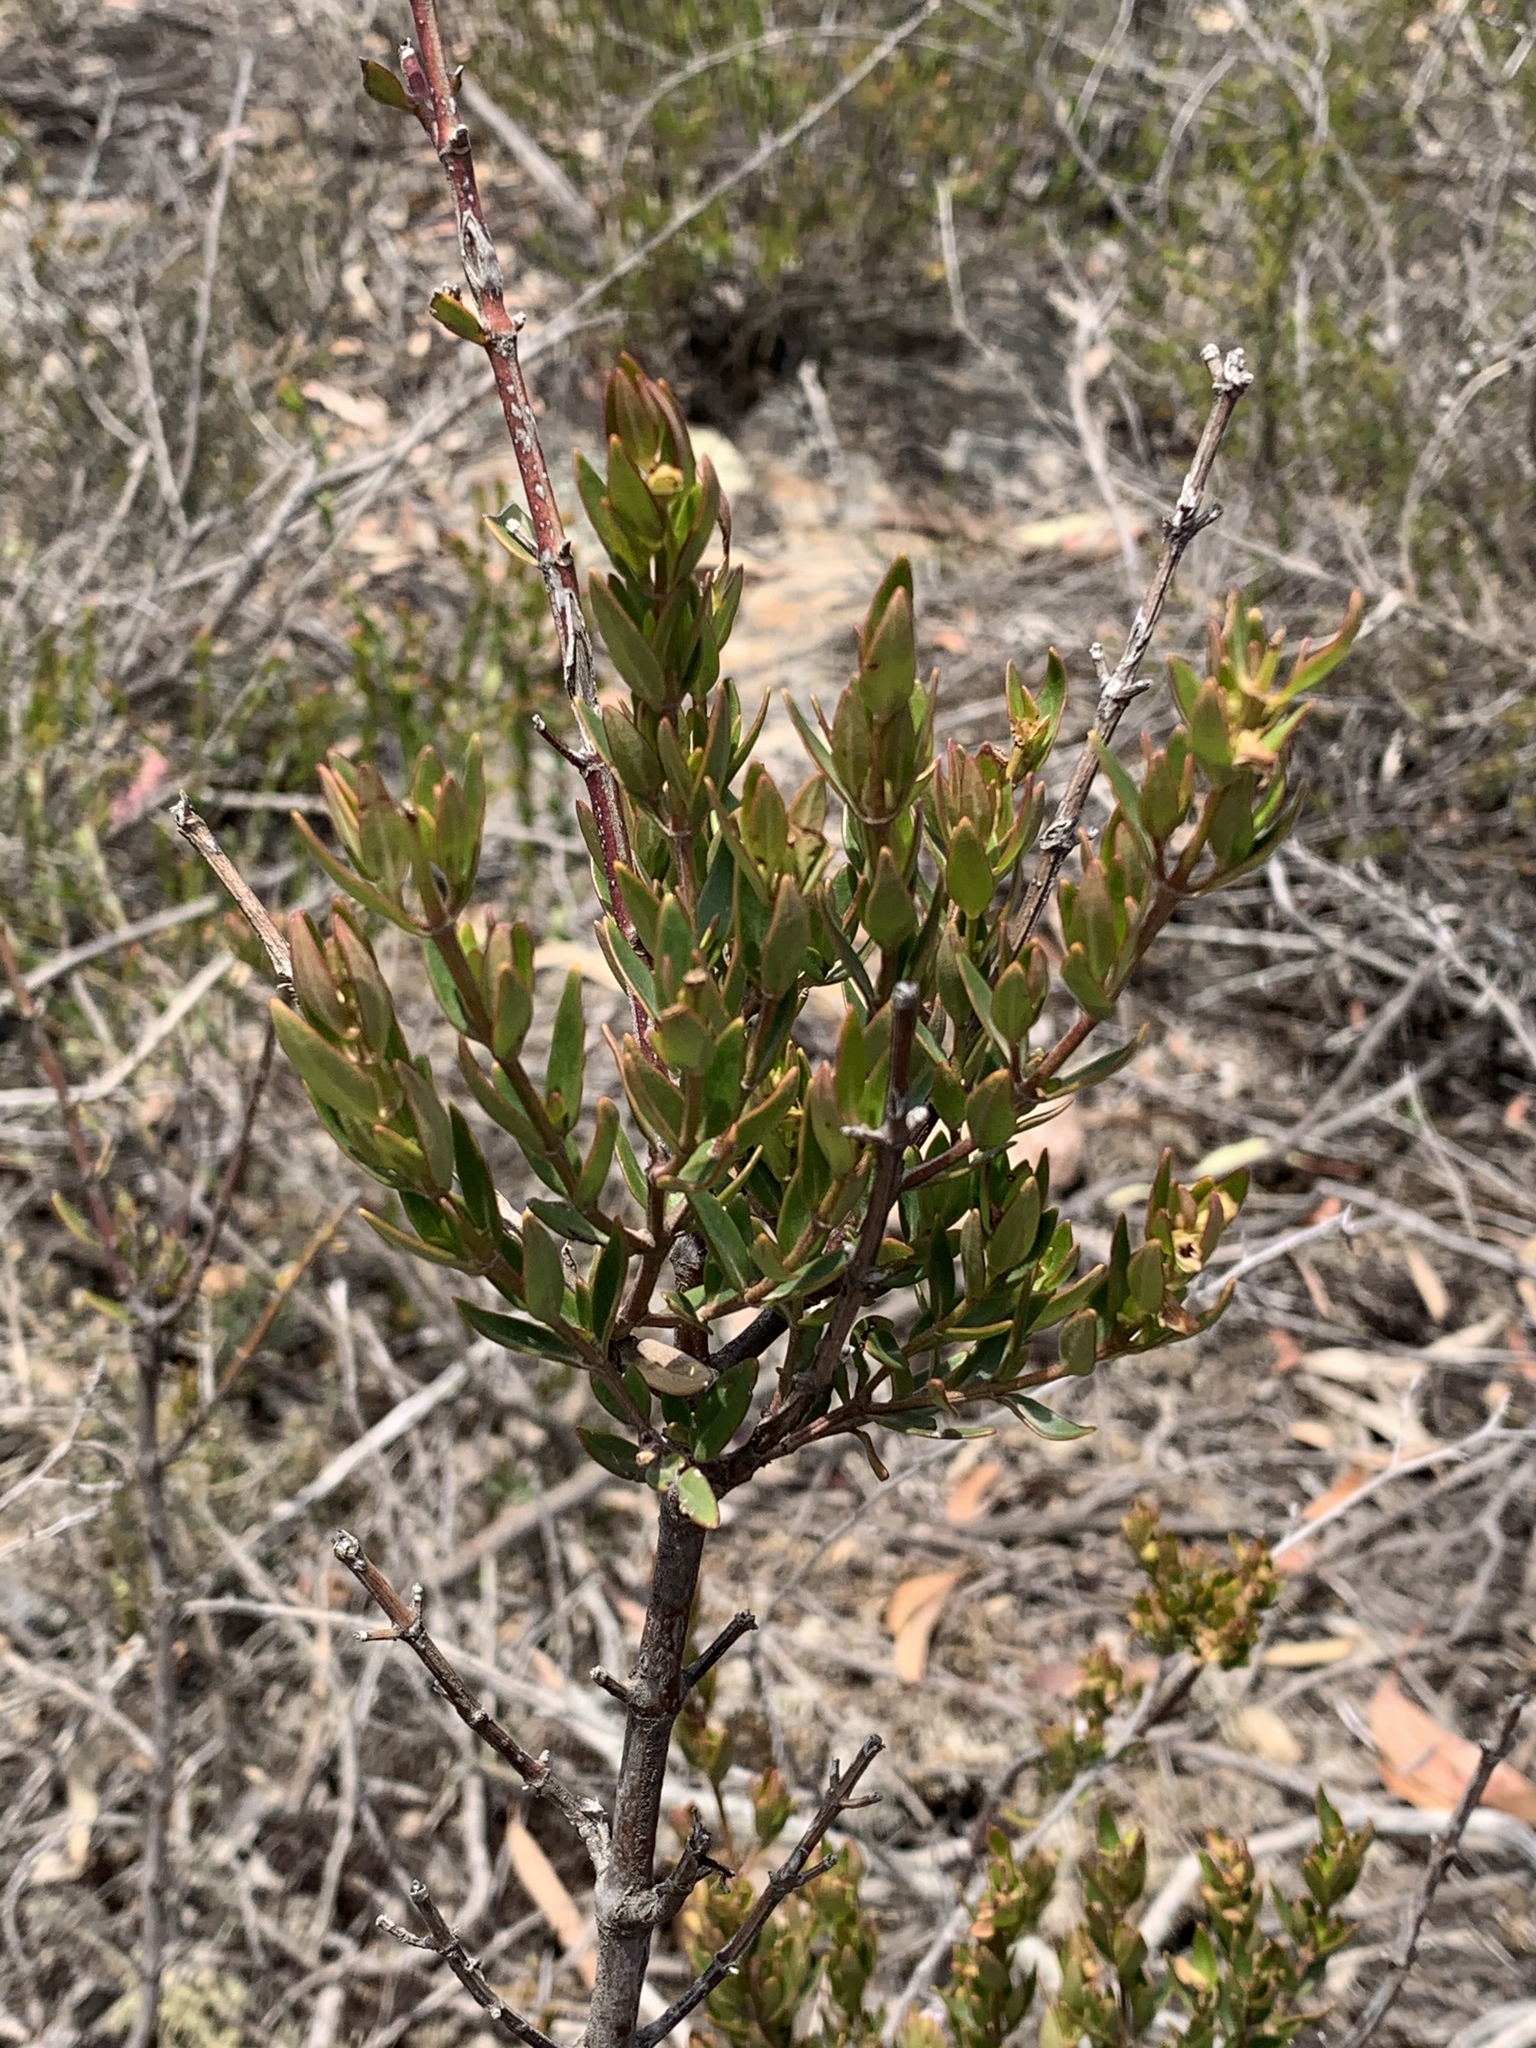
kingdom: Plantae
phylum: Tracheophyta
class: Magnoliopsida
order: Lamiales
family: Lamiaceae
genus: Prostanthera
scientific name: Prostanthera hindii
